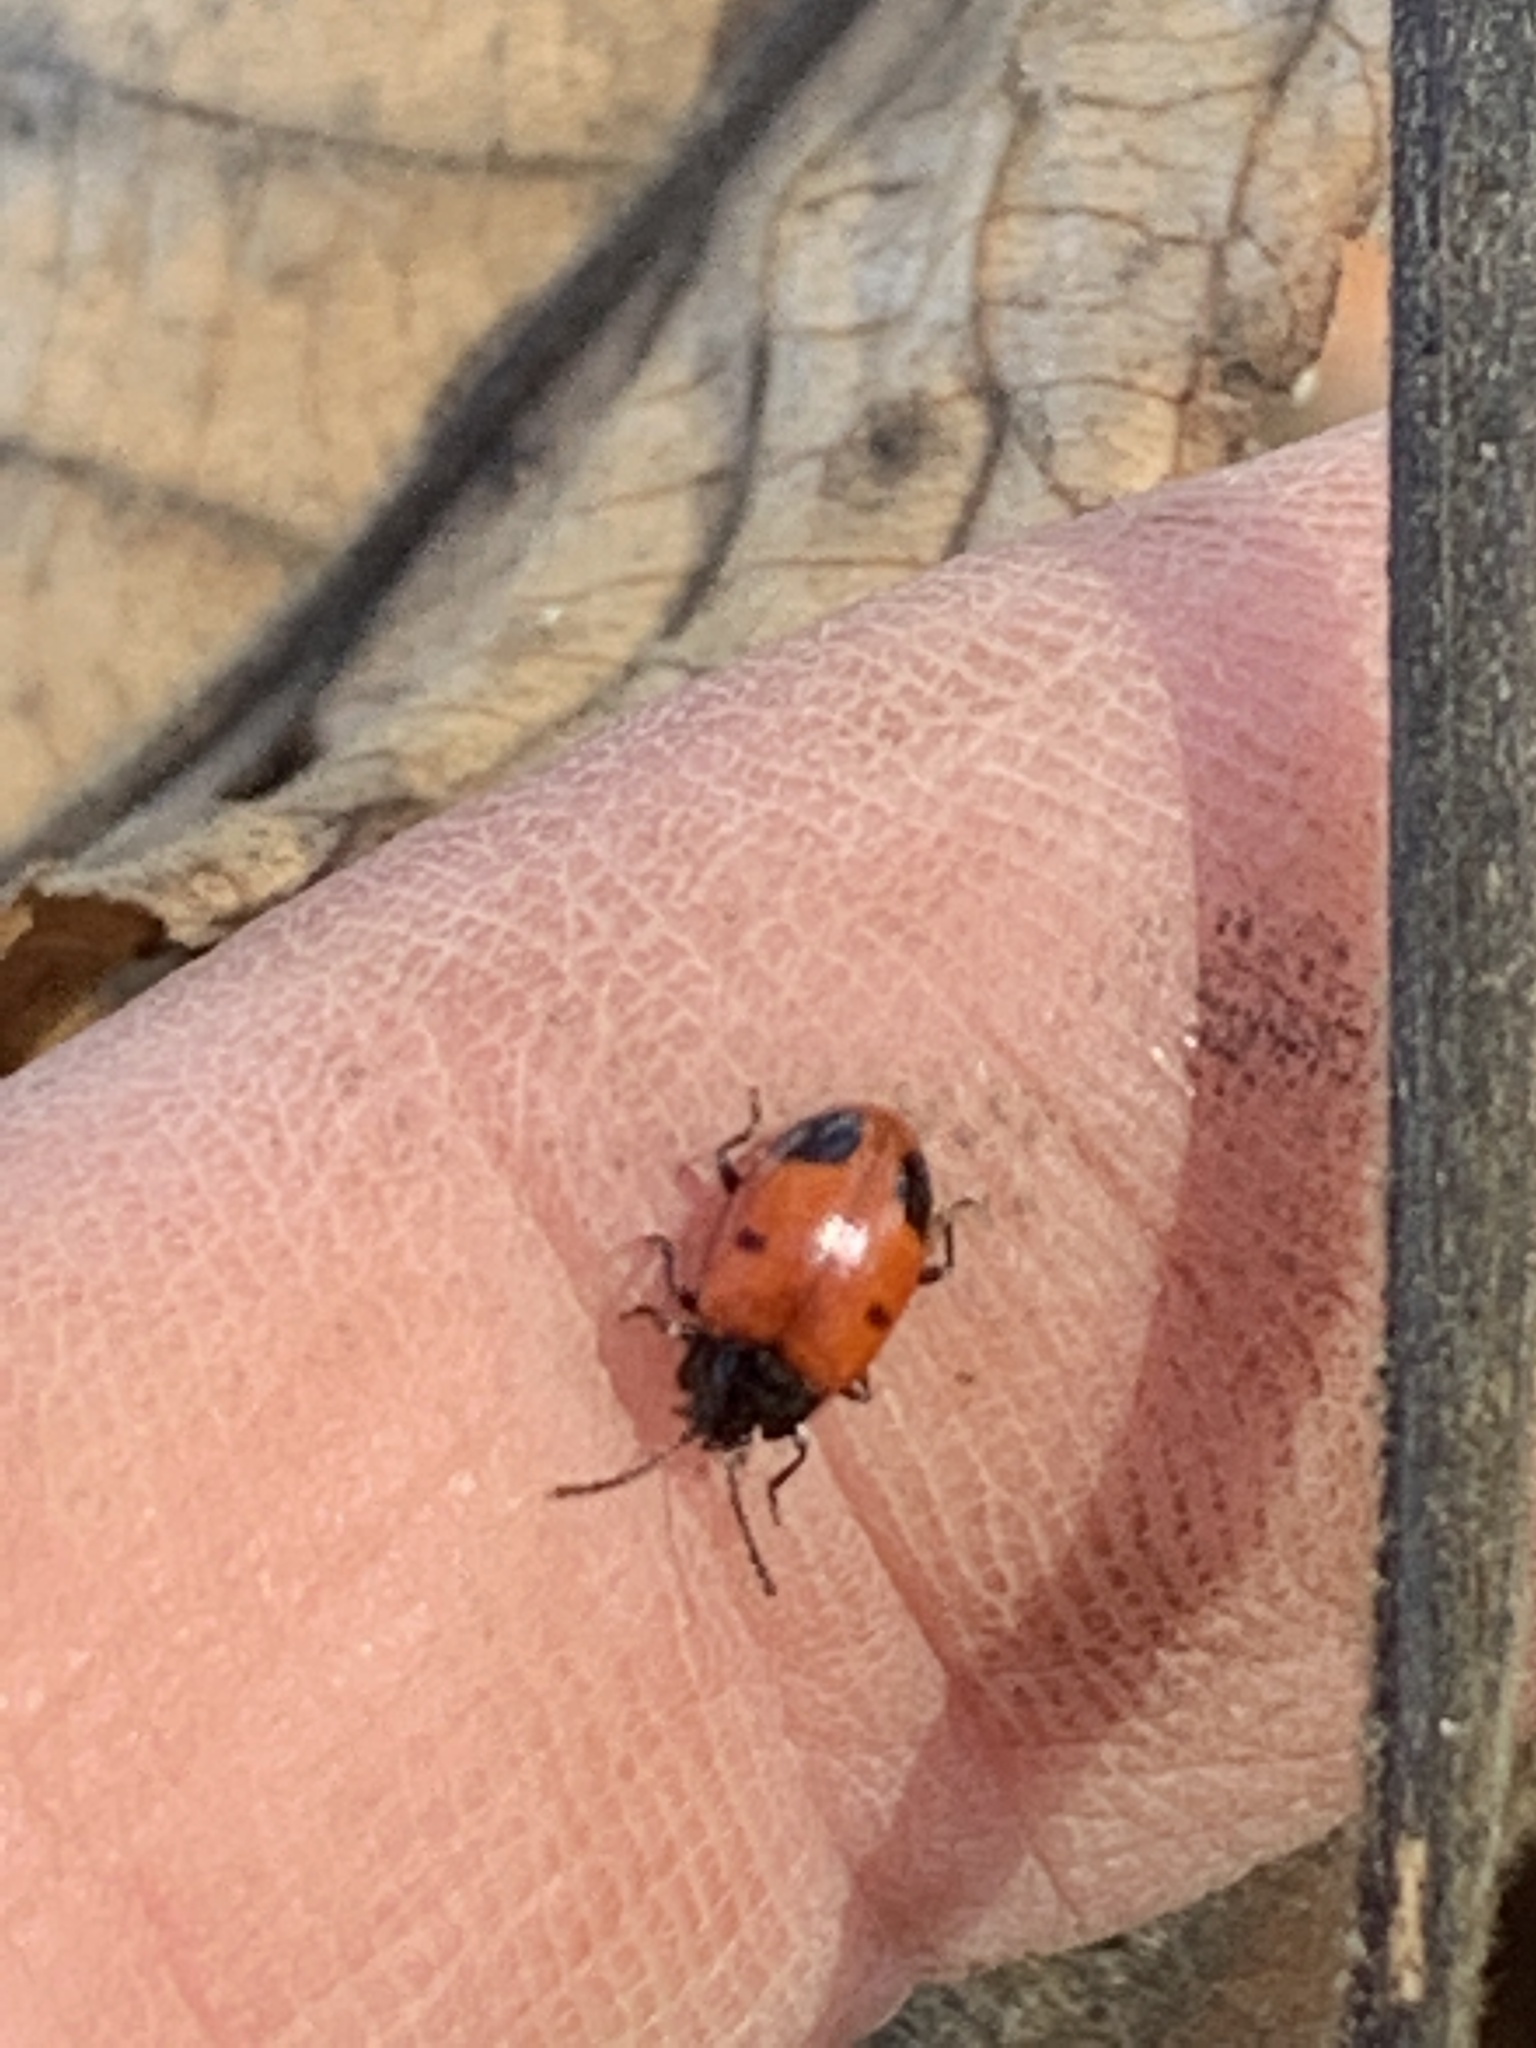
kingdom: Animalia
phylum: Arthropoda
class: Insecta
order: Coleoptera
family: Endomychidae
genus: Endomychus
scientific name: Endomychus biguttatus
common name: Handsome fungus beetle
